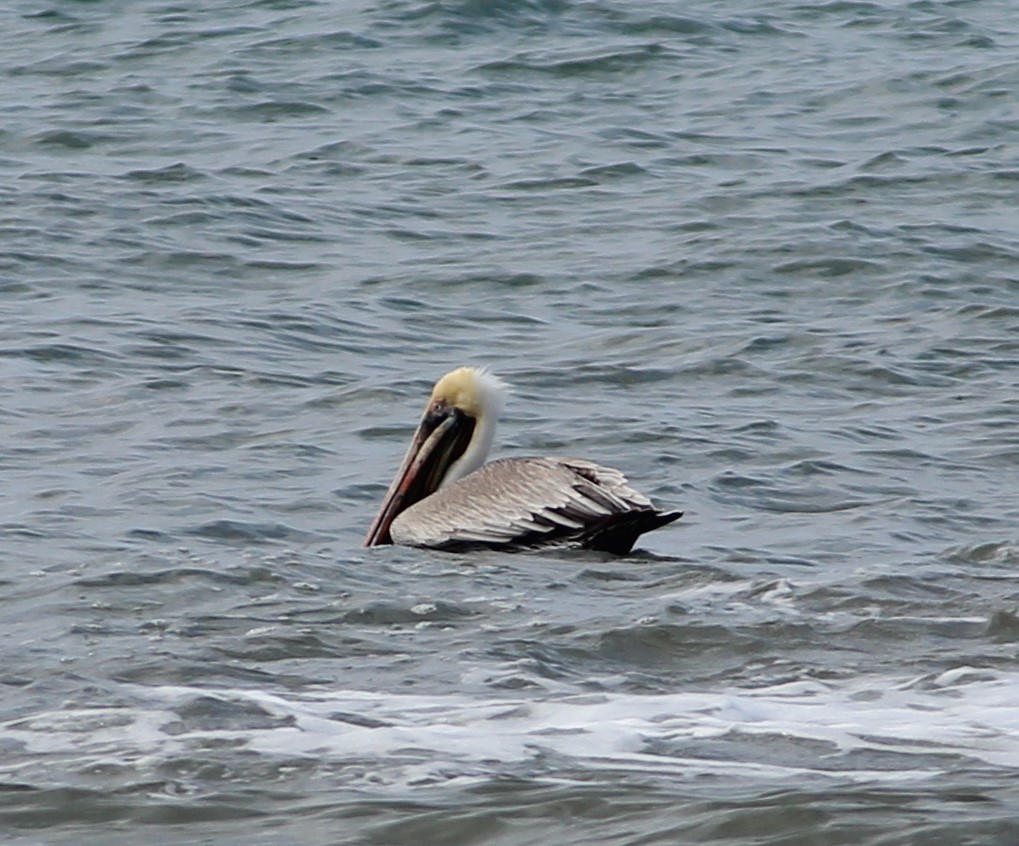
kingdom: Animalia
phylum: Chordata
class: Aves
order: Pelecaniformes
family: Pelecanidae
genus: Pelecanus
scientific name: Pelecanus occidentalis
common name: Brown pelican
